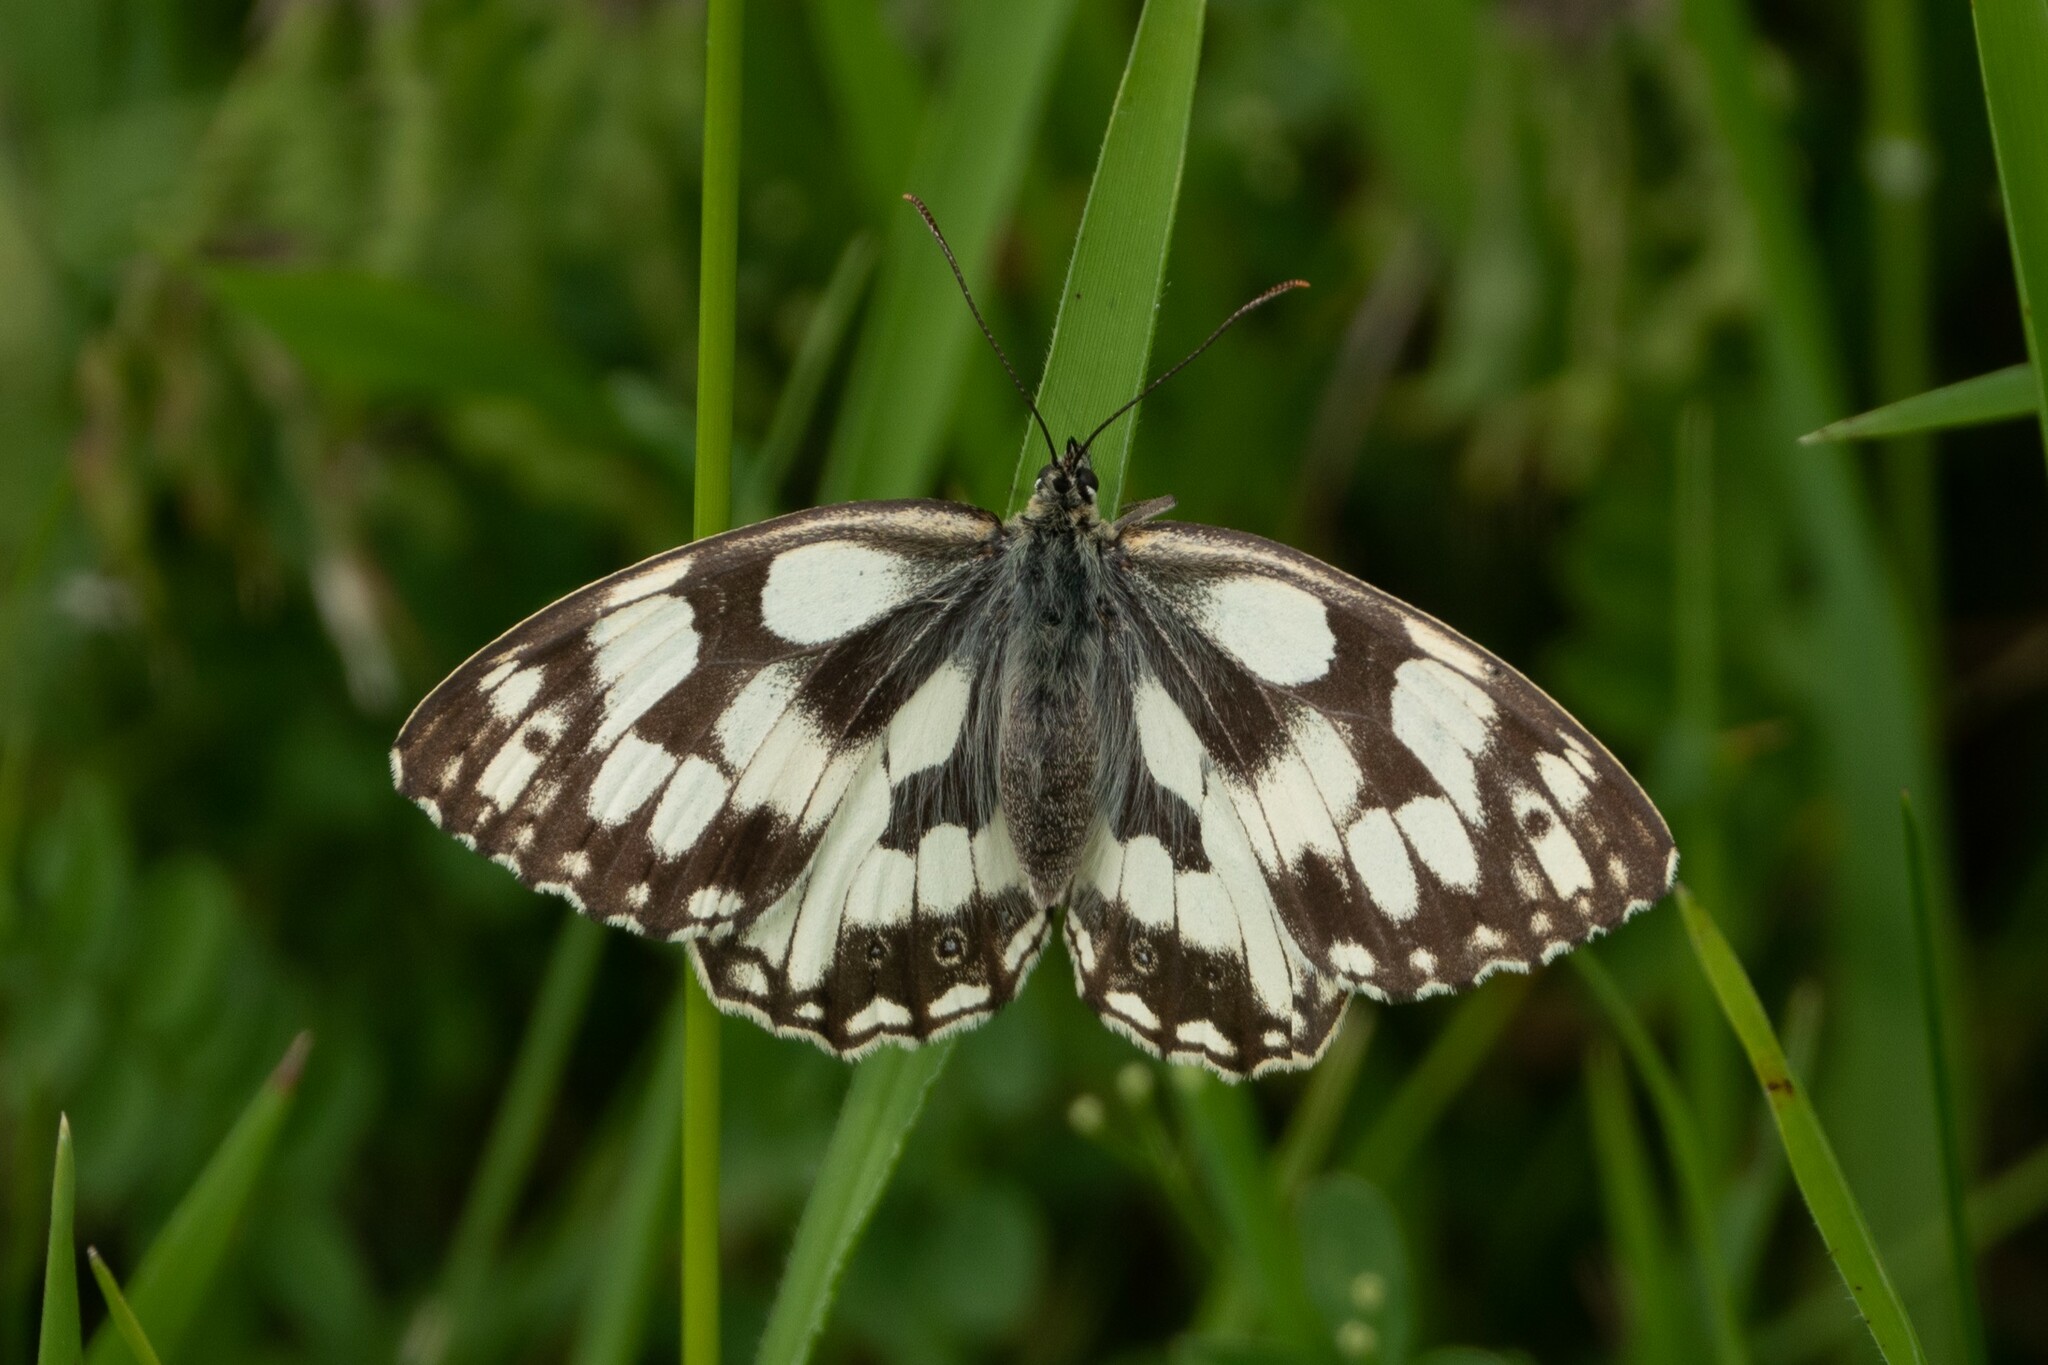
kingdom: Animalia
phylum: Arthropoda
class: Insecta
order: Lepidoptera
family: Nymphalidae
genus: Melanargia
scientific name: Melanargia galathea
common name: Marbled white
